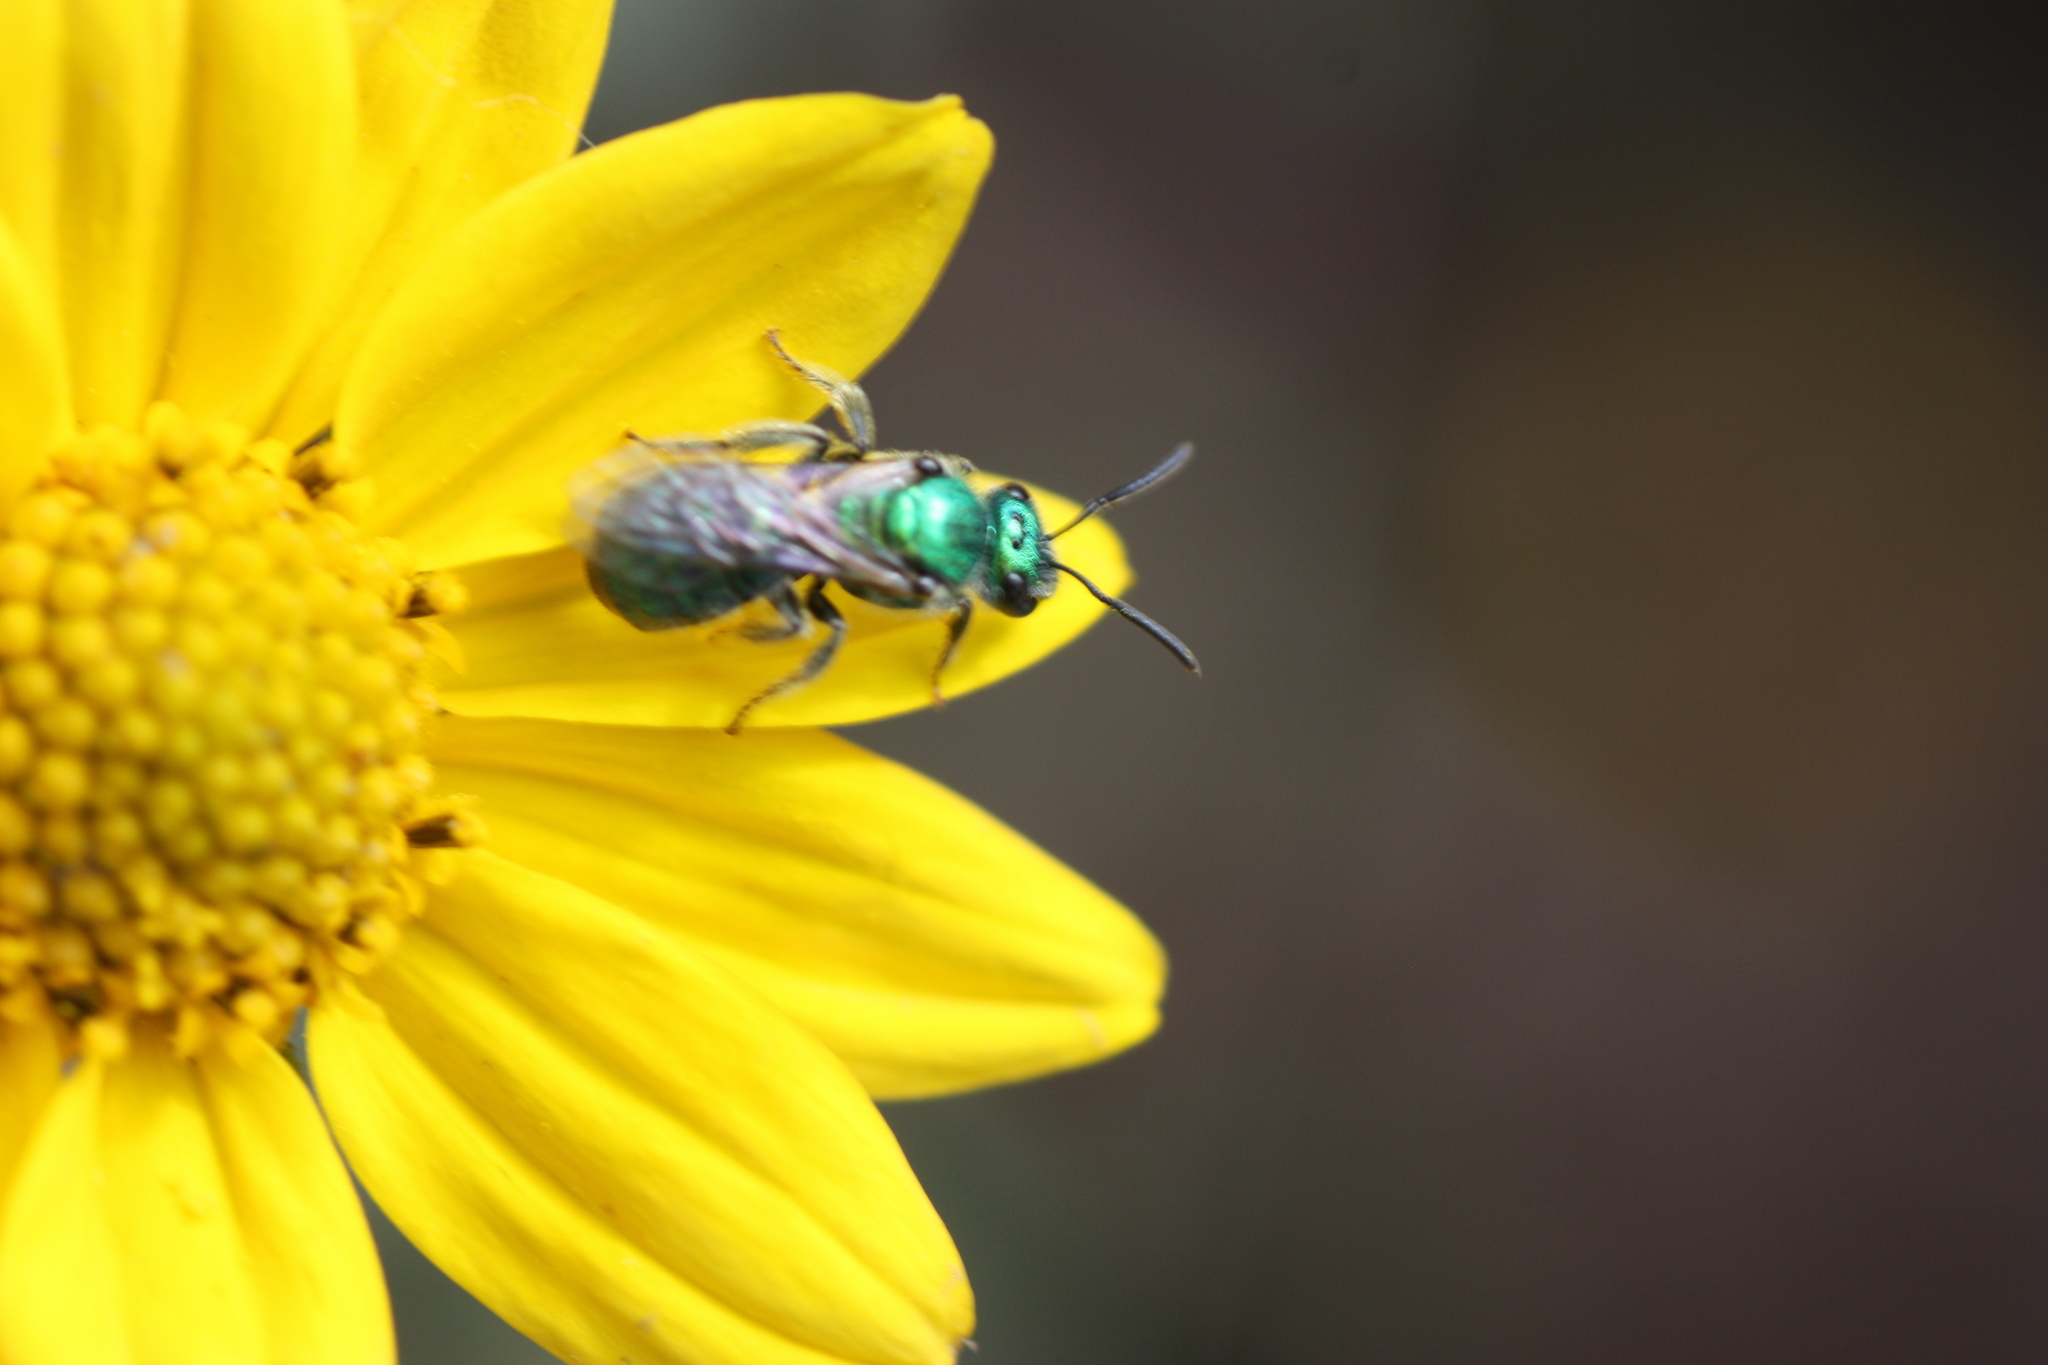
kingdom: Animalia
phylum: Arthropoda
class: Insecta
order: Hymenoptera
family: Halictidae
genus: Augochlorella
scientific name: Augochlorella
